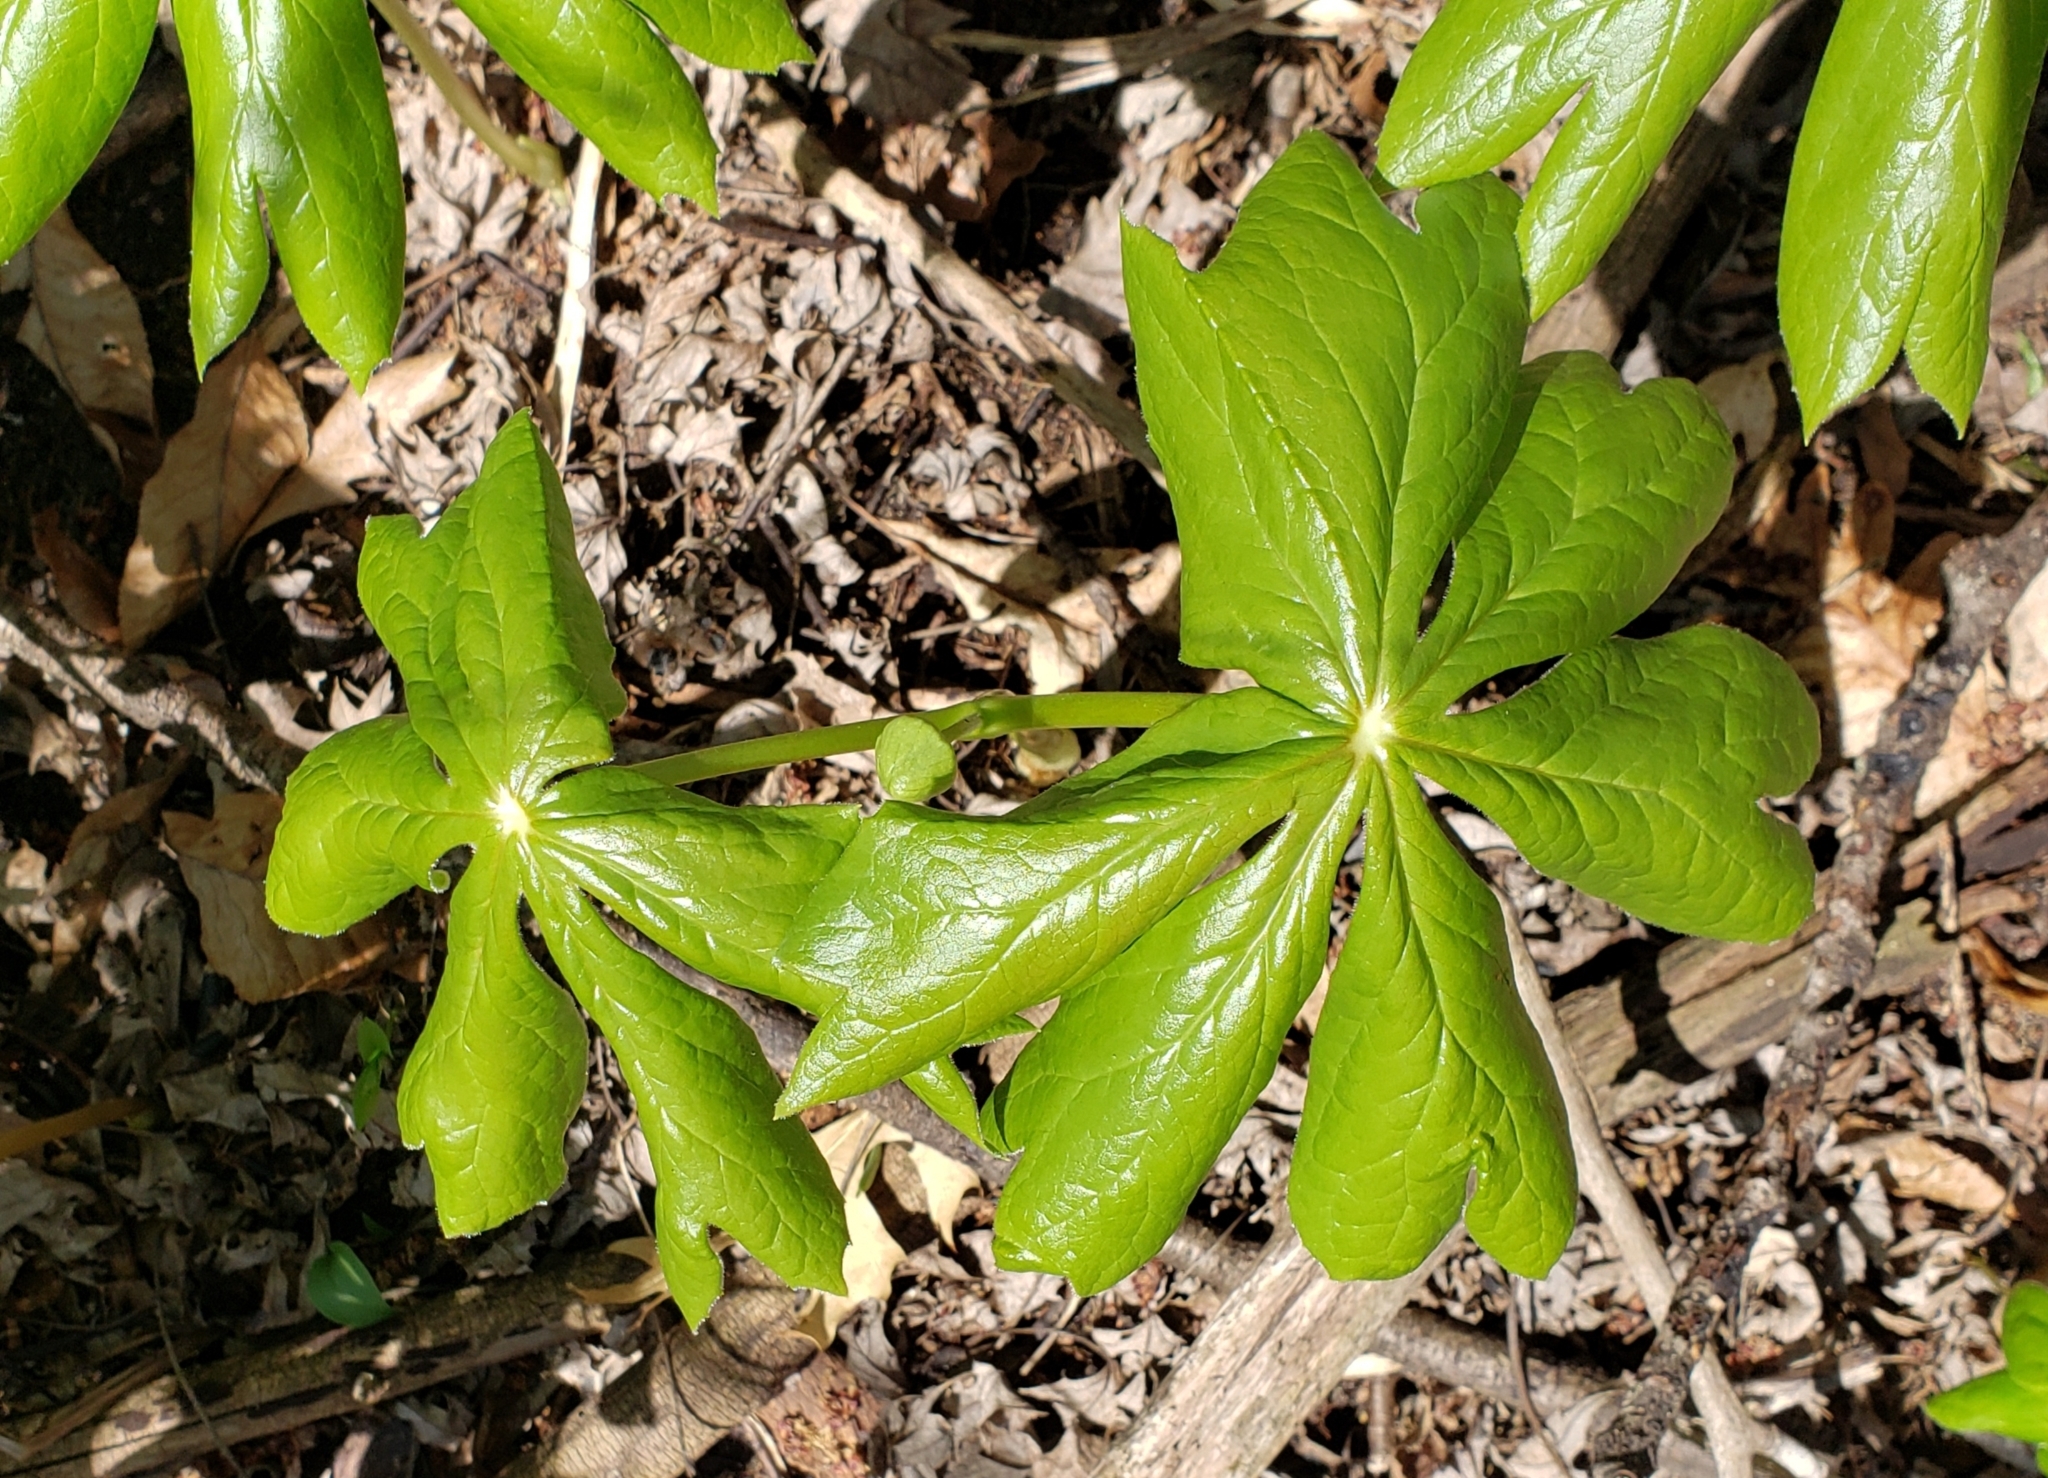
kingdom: Plantae
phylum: Tracheophyta
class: Magnoliopsida
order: Ranunculales
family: Berberidaceae
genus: Podophyllum
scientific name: Podophyllum peltatum
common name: Wild mandrake
